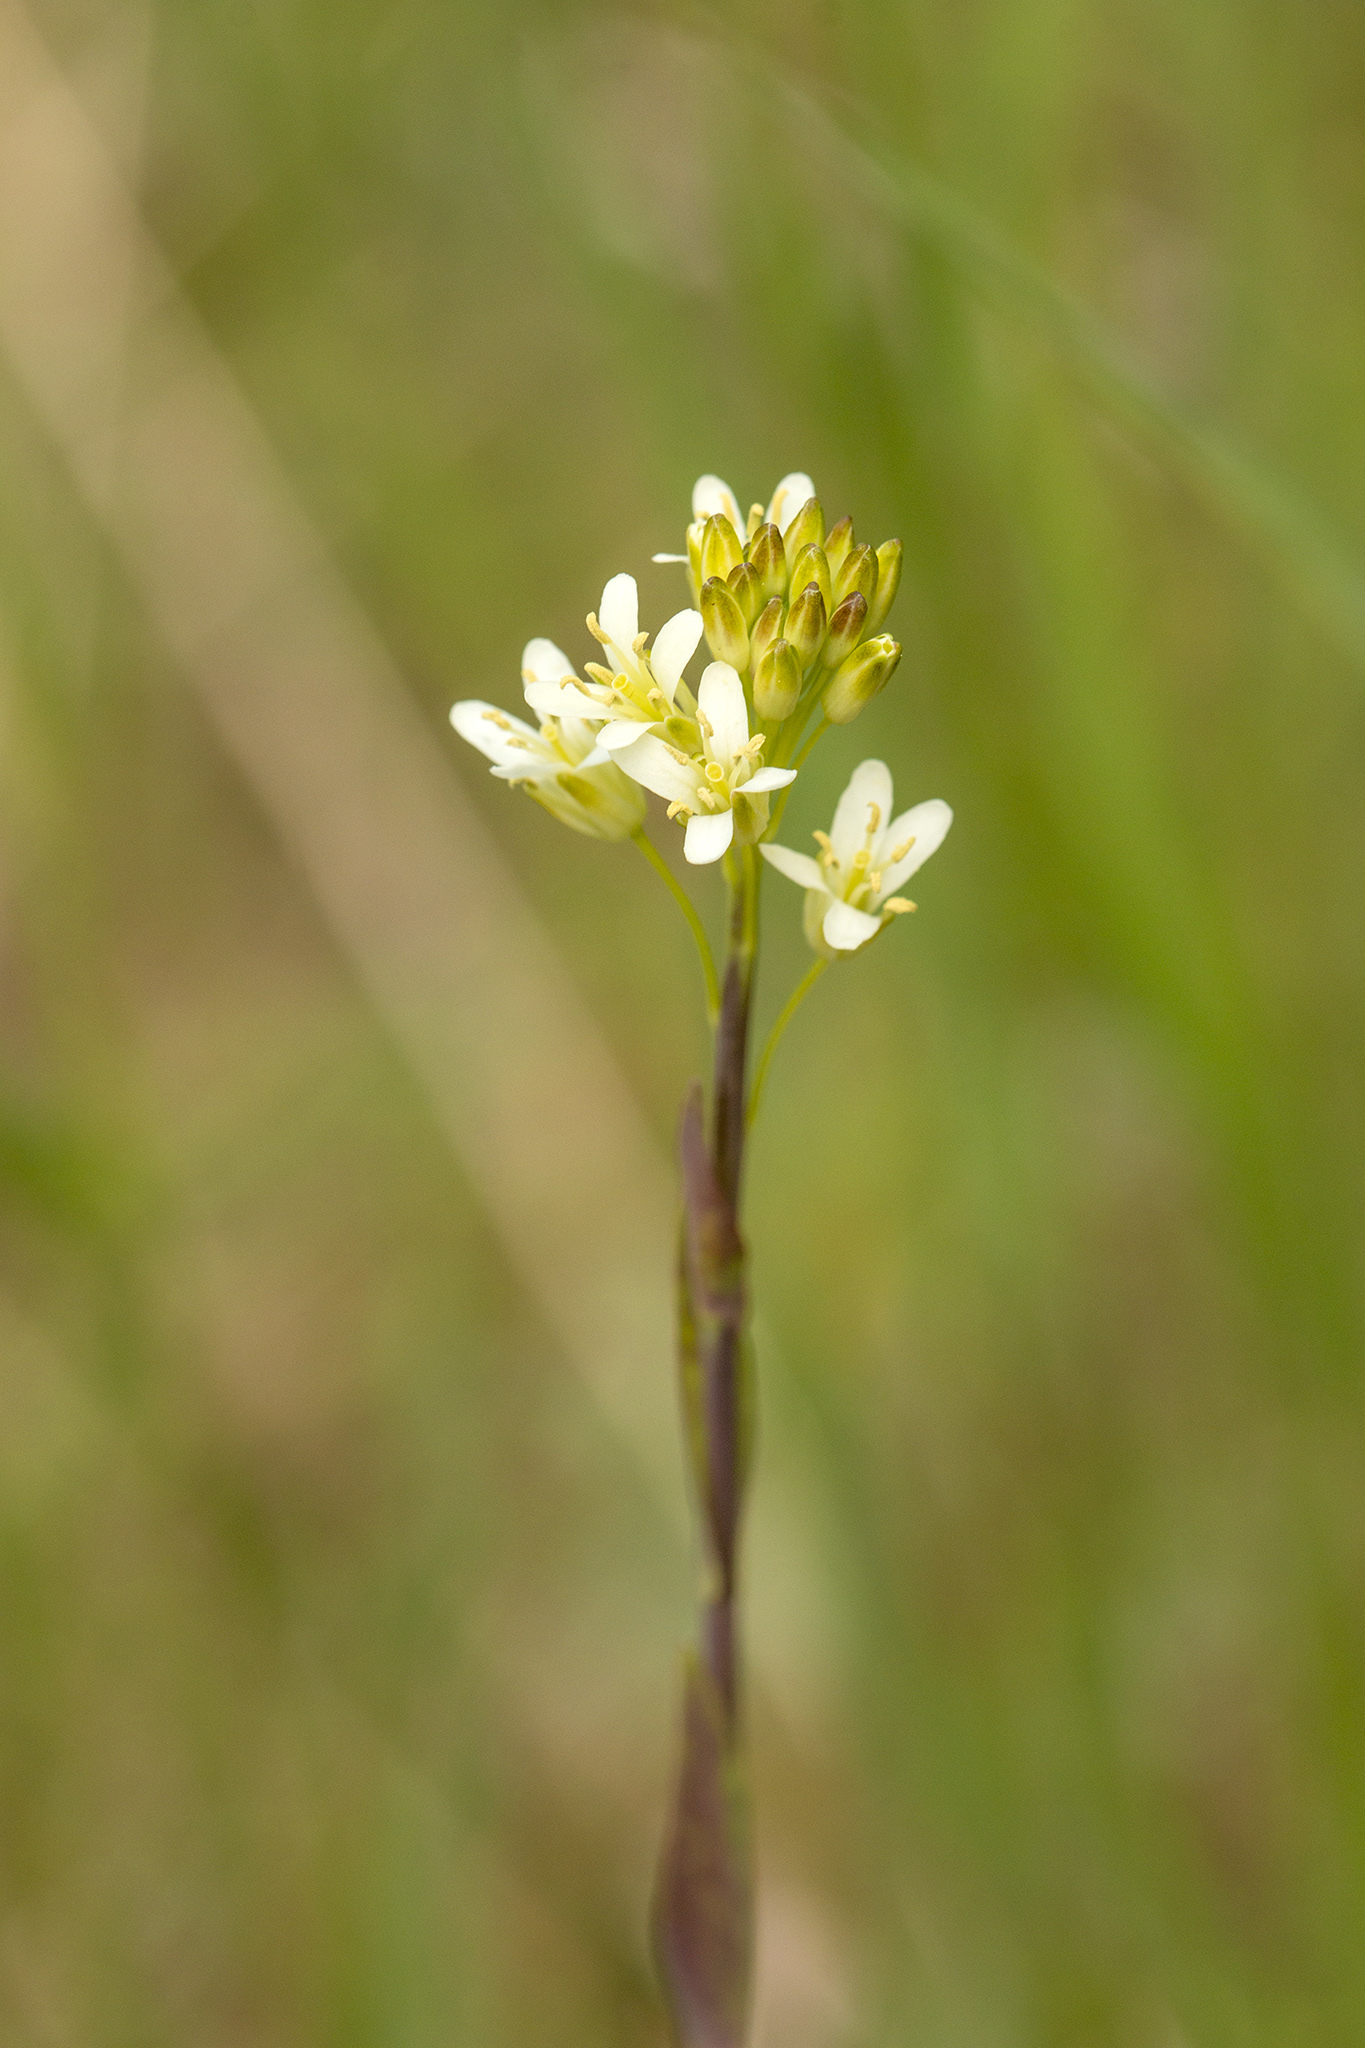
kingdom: Plantae
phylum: Tracheophyta
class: Magnoliopsida
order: Brassicales
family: Brassicaceae
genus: Turritis
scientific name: Turritis glabra
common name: Tower rockcress
